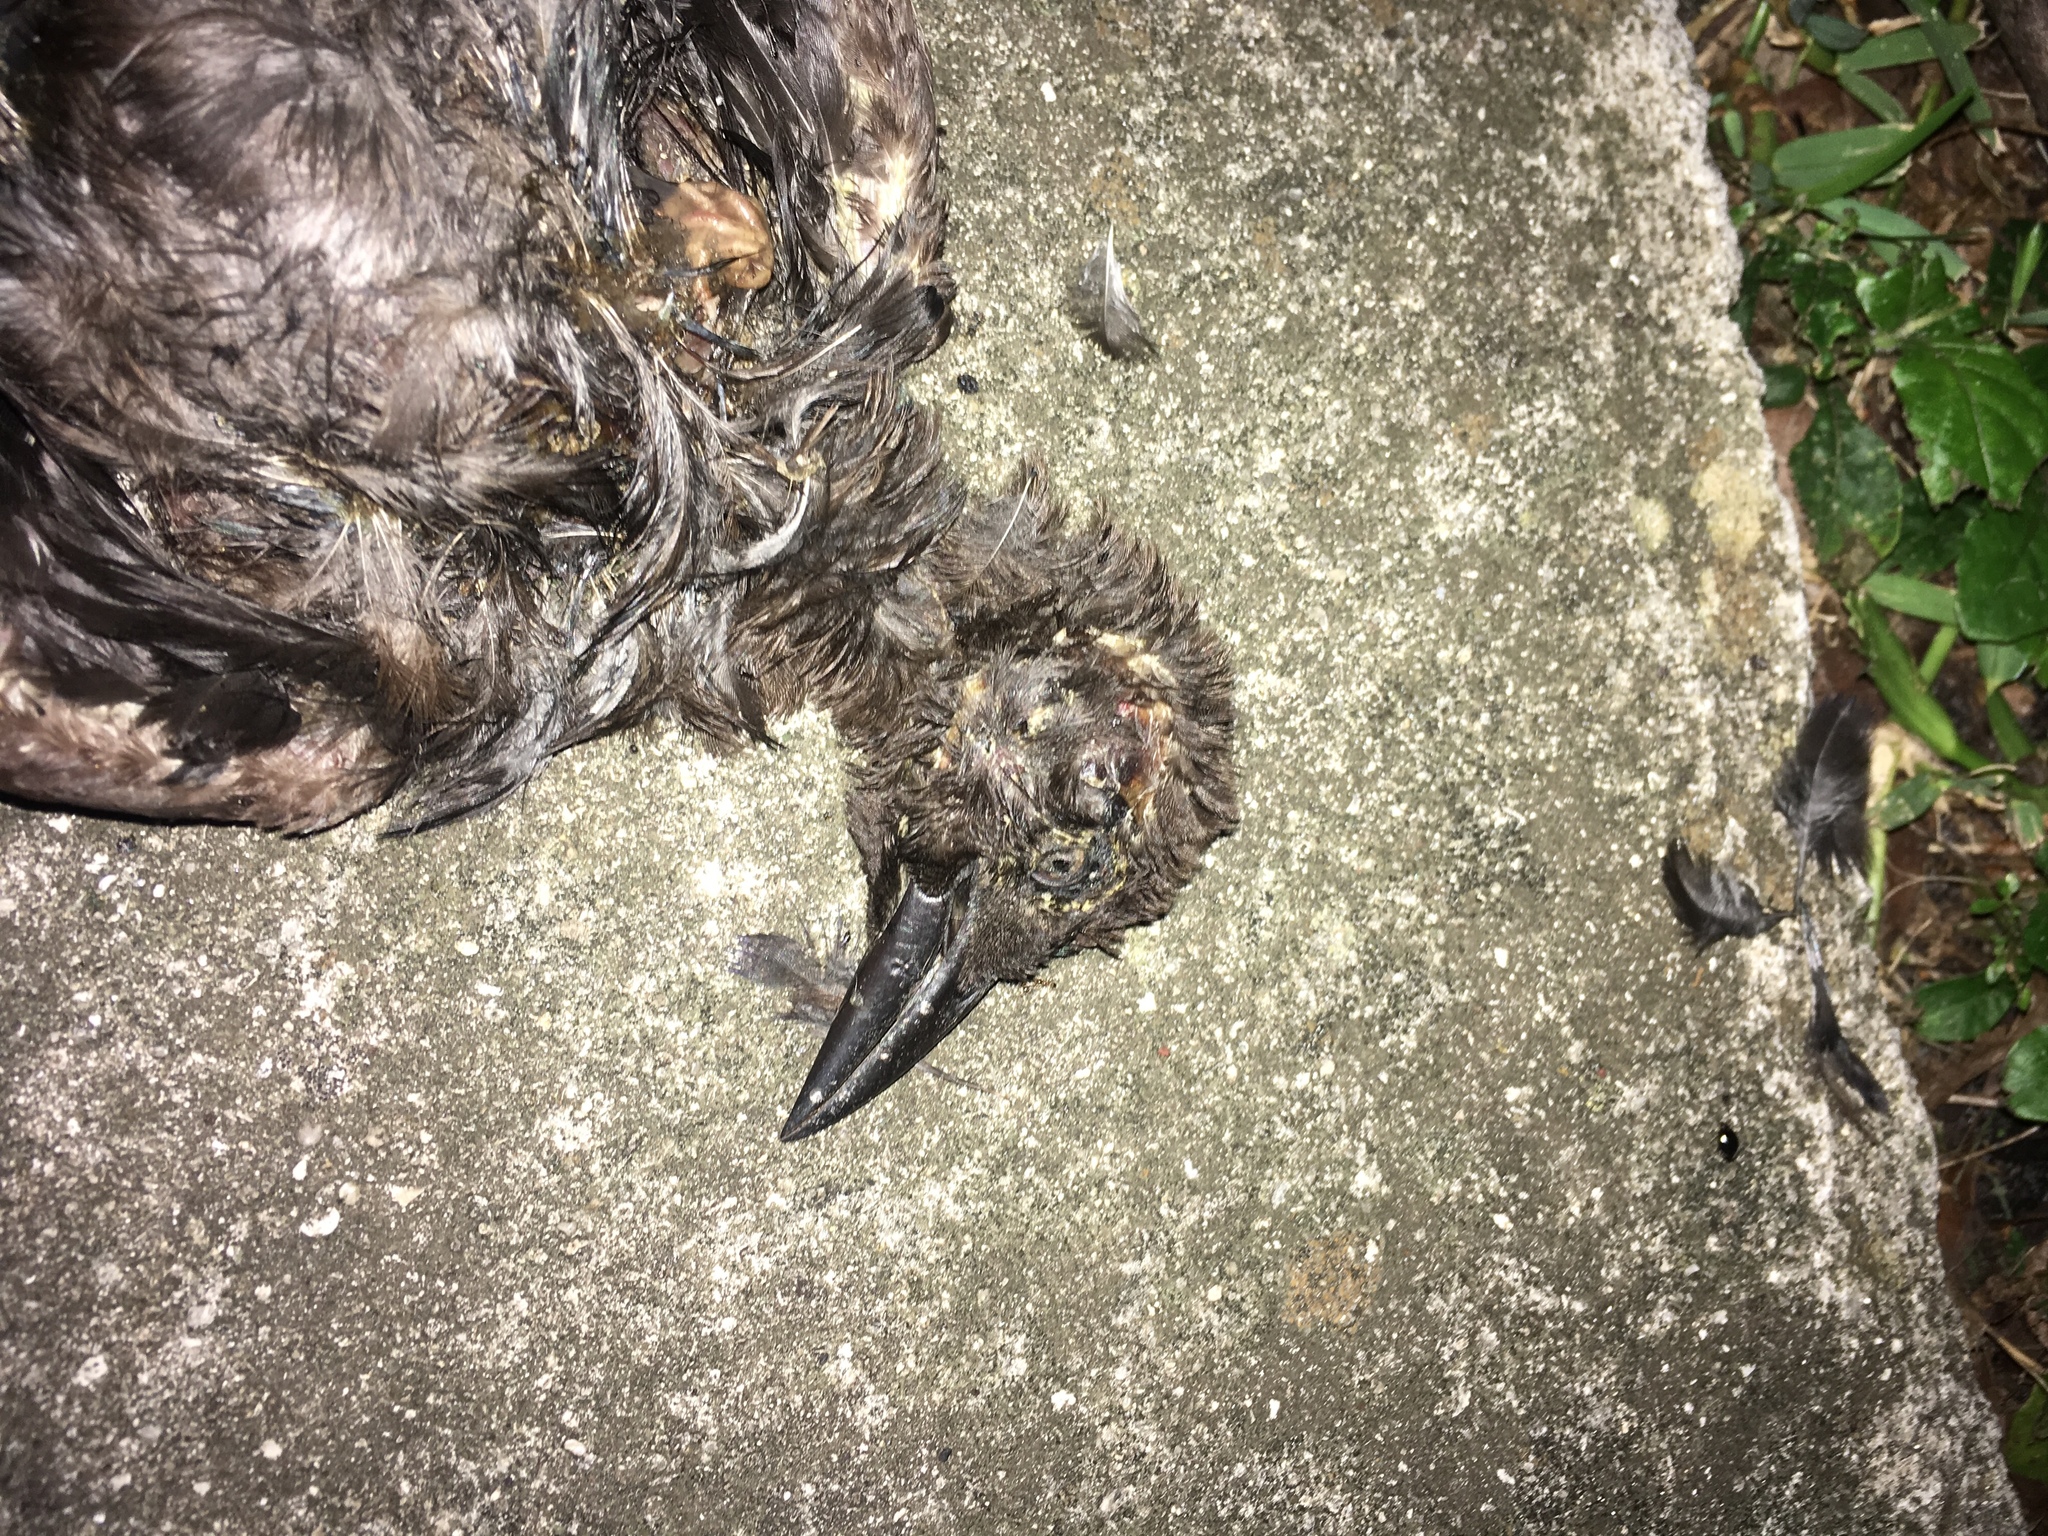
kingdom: Animalia
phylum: Chordata
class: Aves
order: Passeriformes
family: Icteridae
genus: Quiscalus
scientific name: Quiscalus quiscula
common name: Common grackle
